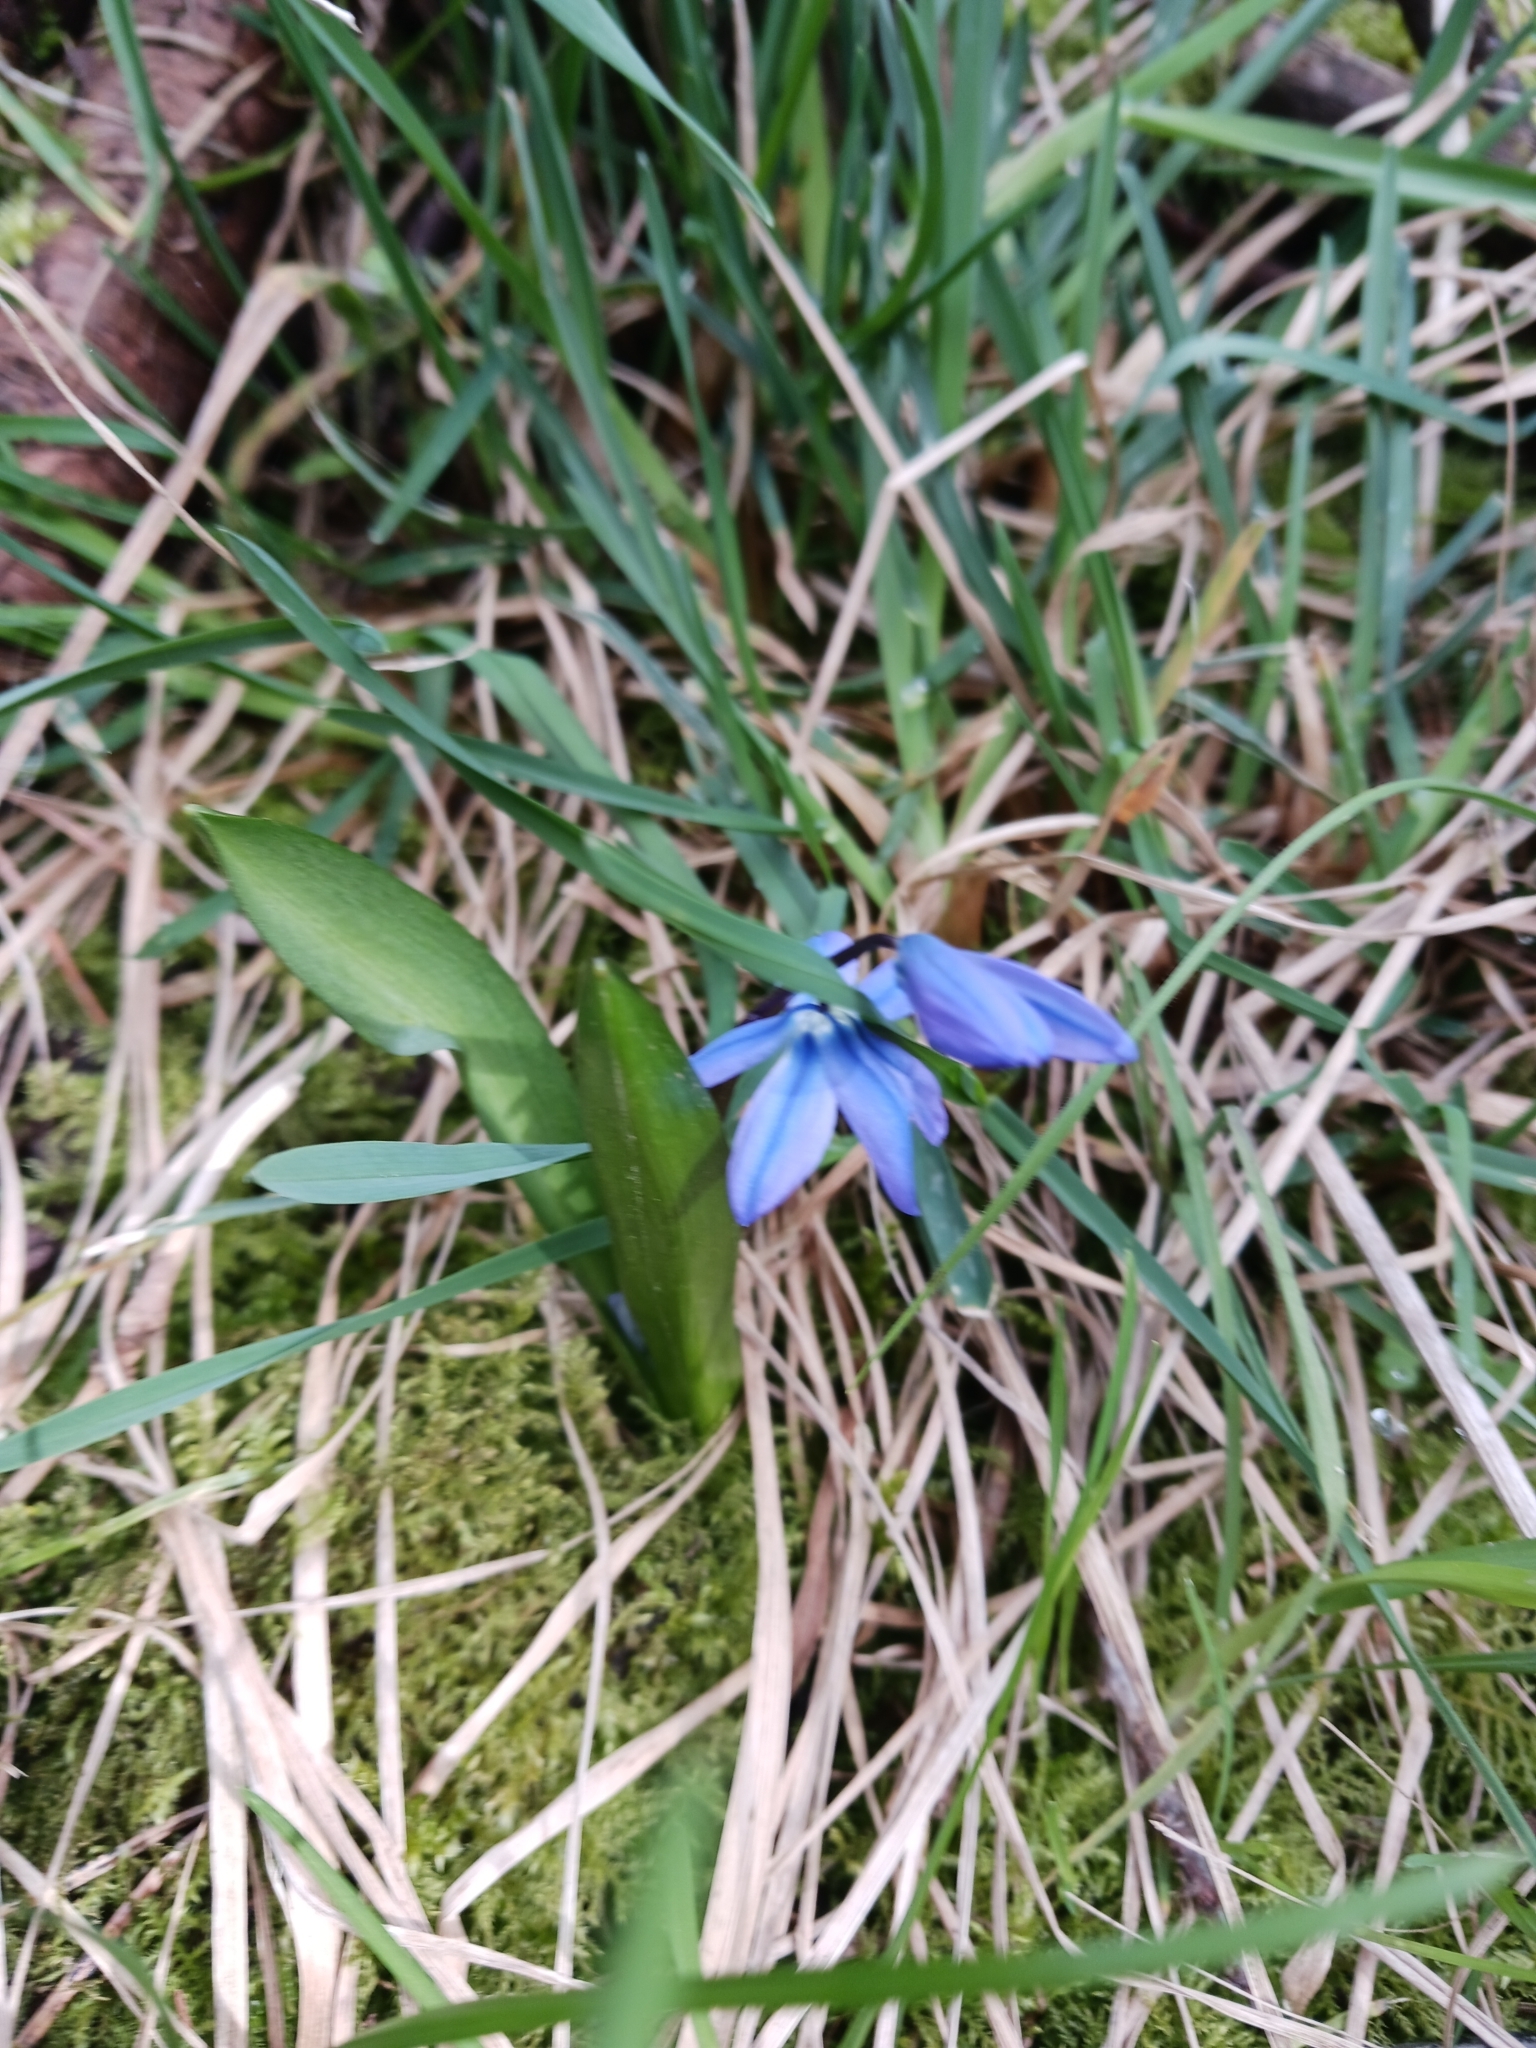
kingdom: Plantae
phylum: Tracheophyta
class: Liliopsida
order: Asparagales
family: Asparagaceae
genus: Scilla
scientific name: Scilla siberica
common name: Siberian squill
